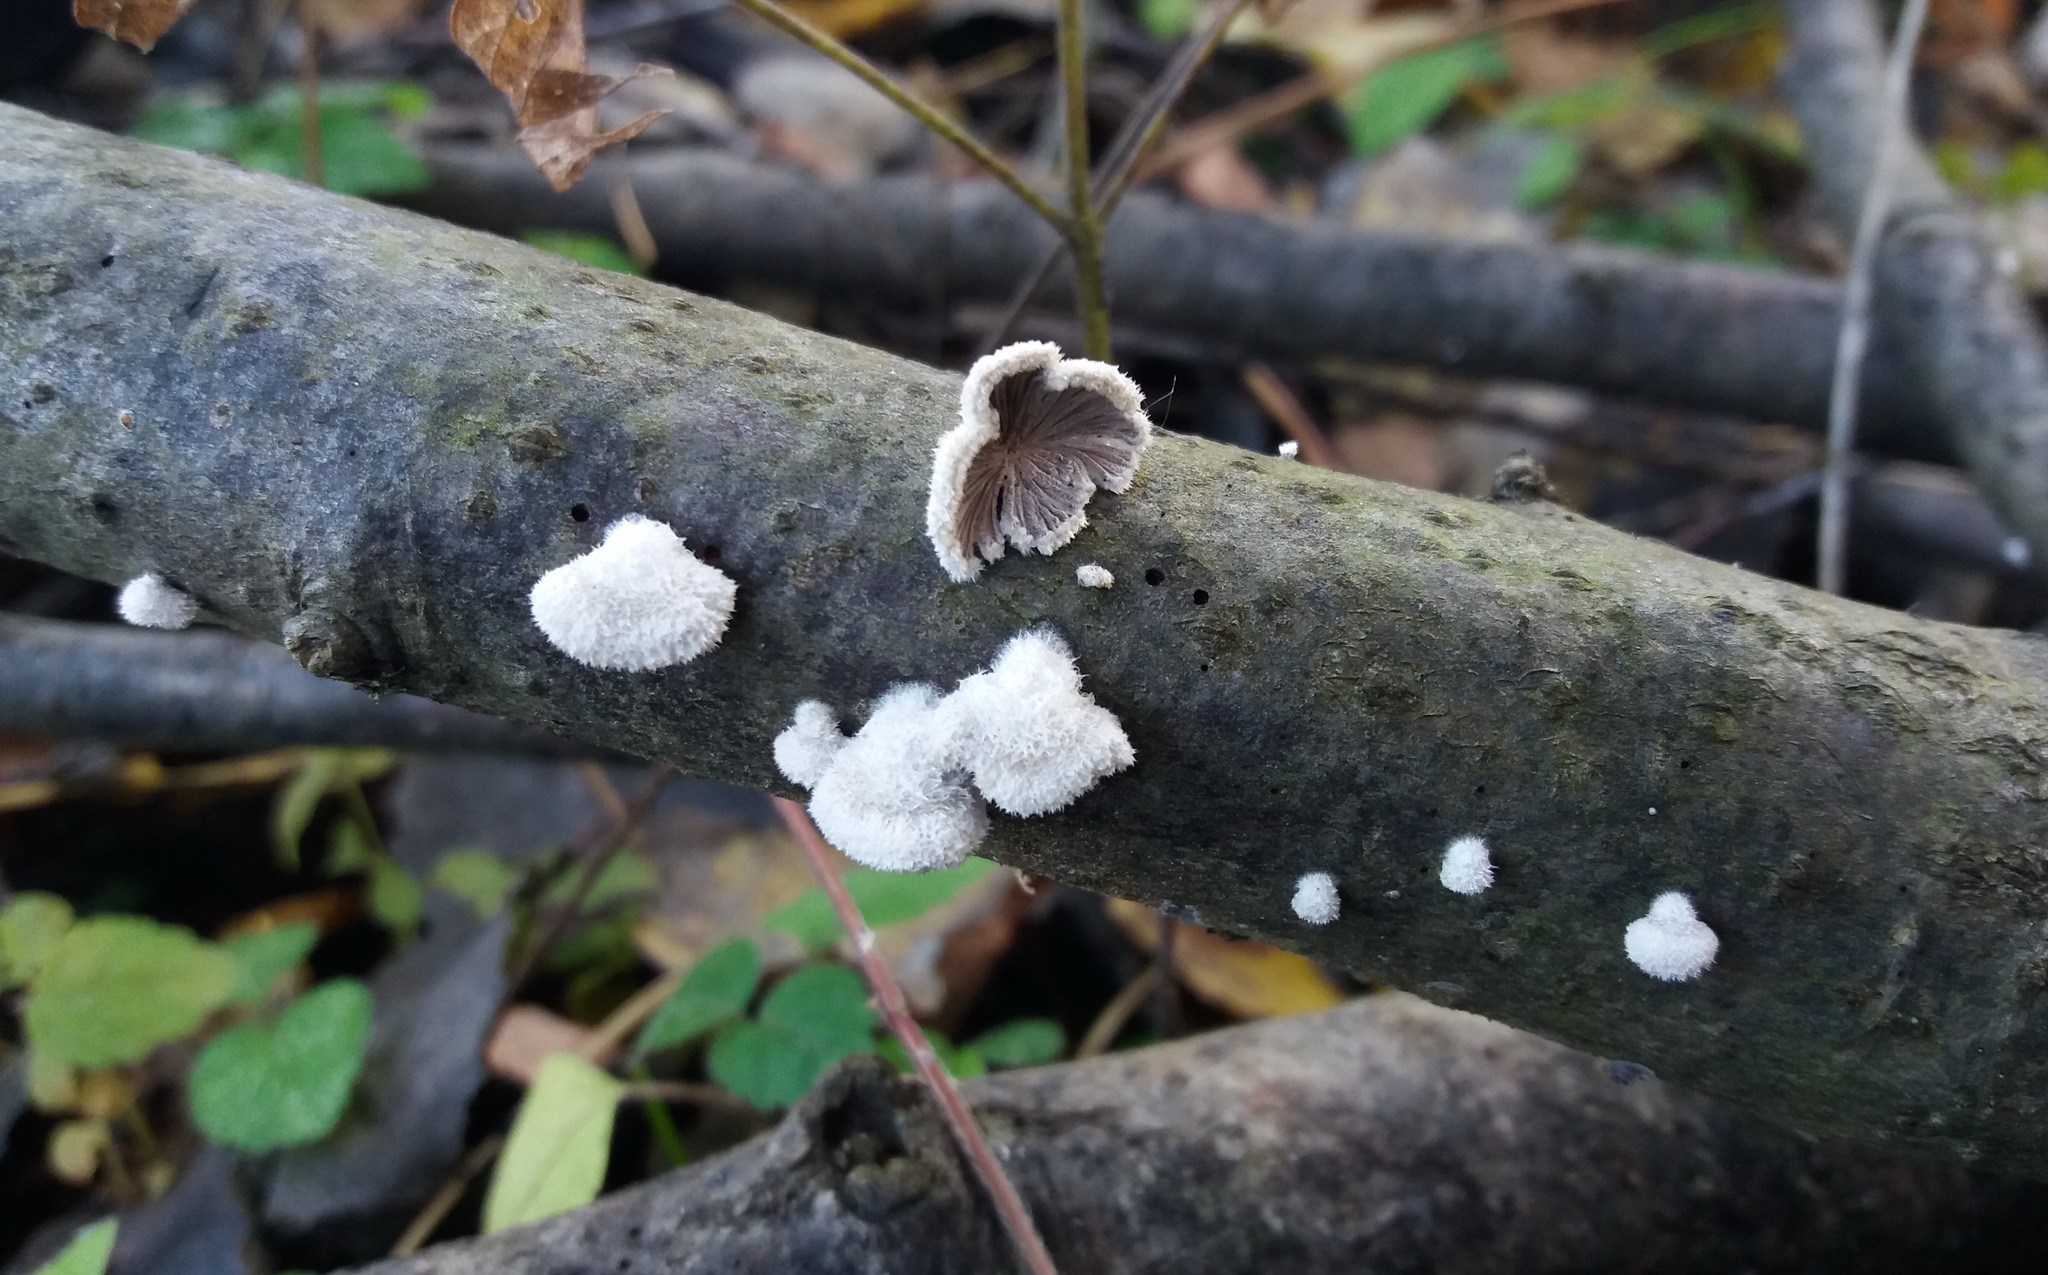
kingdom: Fungi
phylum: Basidiomycota
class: Agaricomycetes
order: Agaricales
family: Schizophyllaceae
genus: Schizophyllum
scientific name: Schizophyllum commune
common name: Common porecrust
